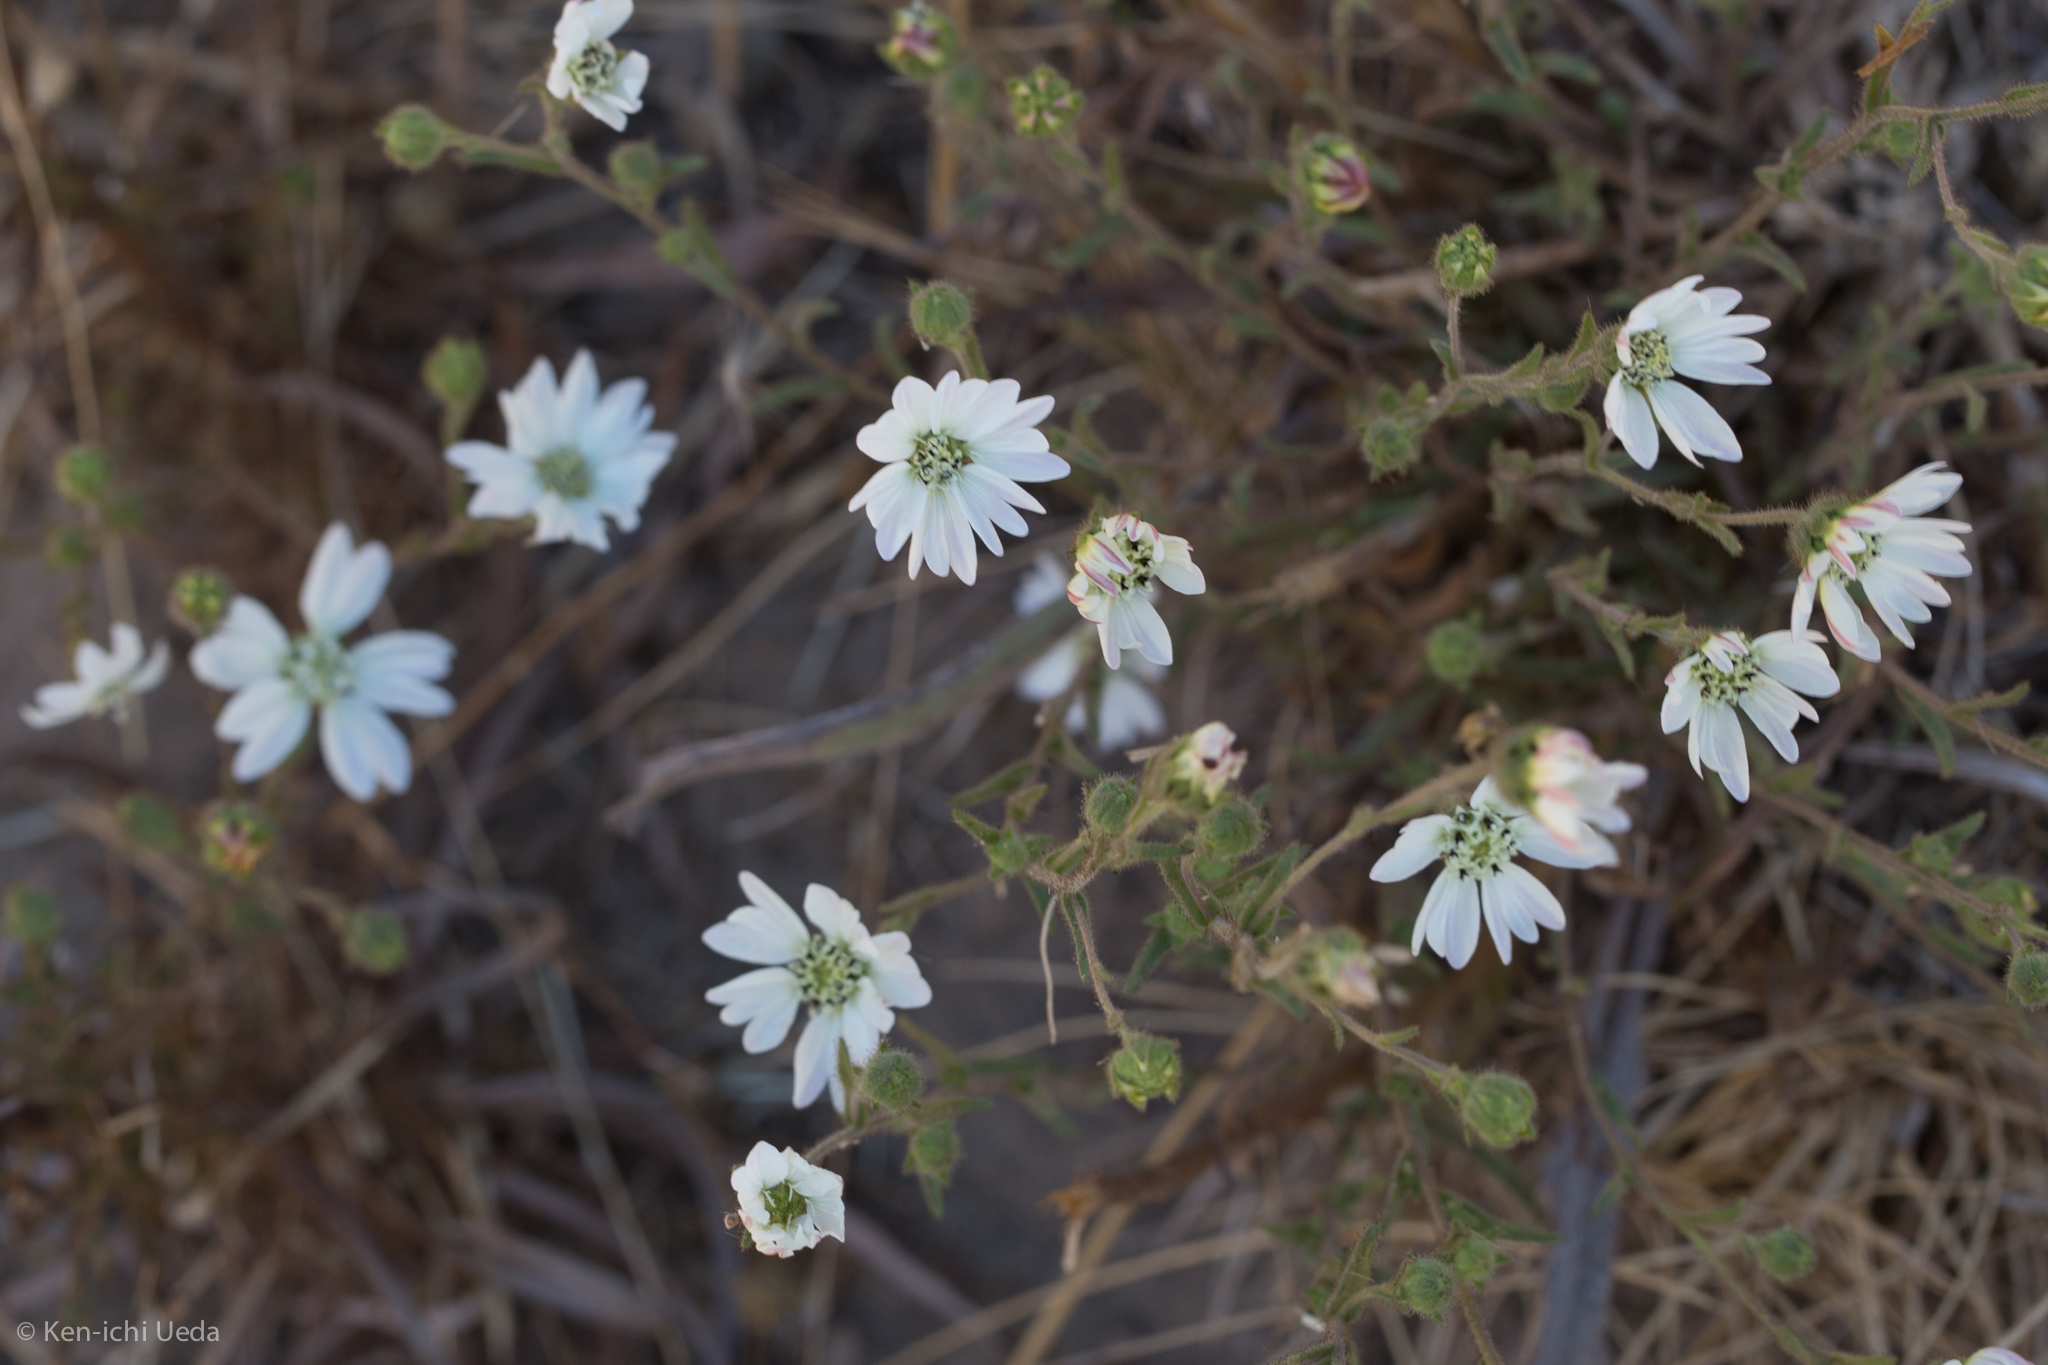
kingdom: Plantae
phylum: Tracheophyta
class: Magnoliopsida
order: Asterales
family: Asteraceae
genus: Hemizonia
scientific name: Hemizonia congesta
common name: Hayfield tarweed
